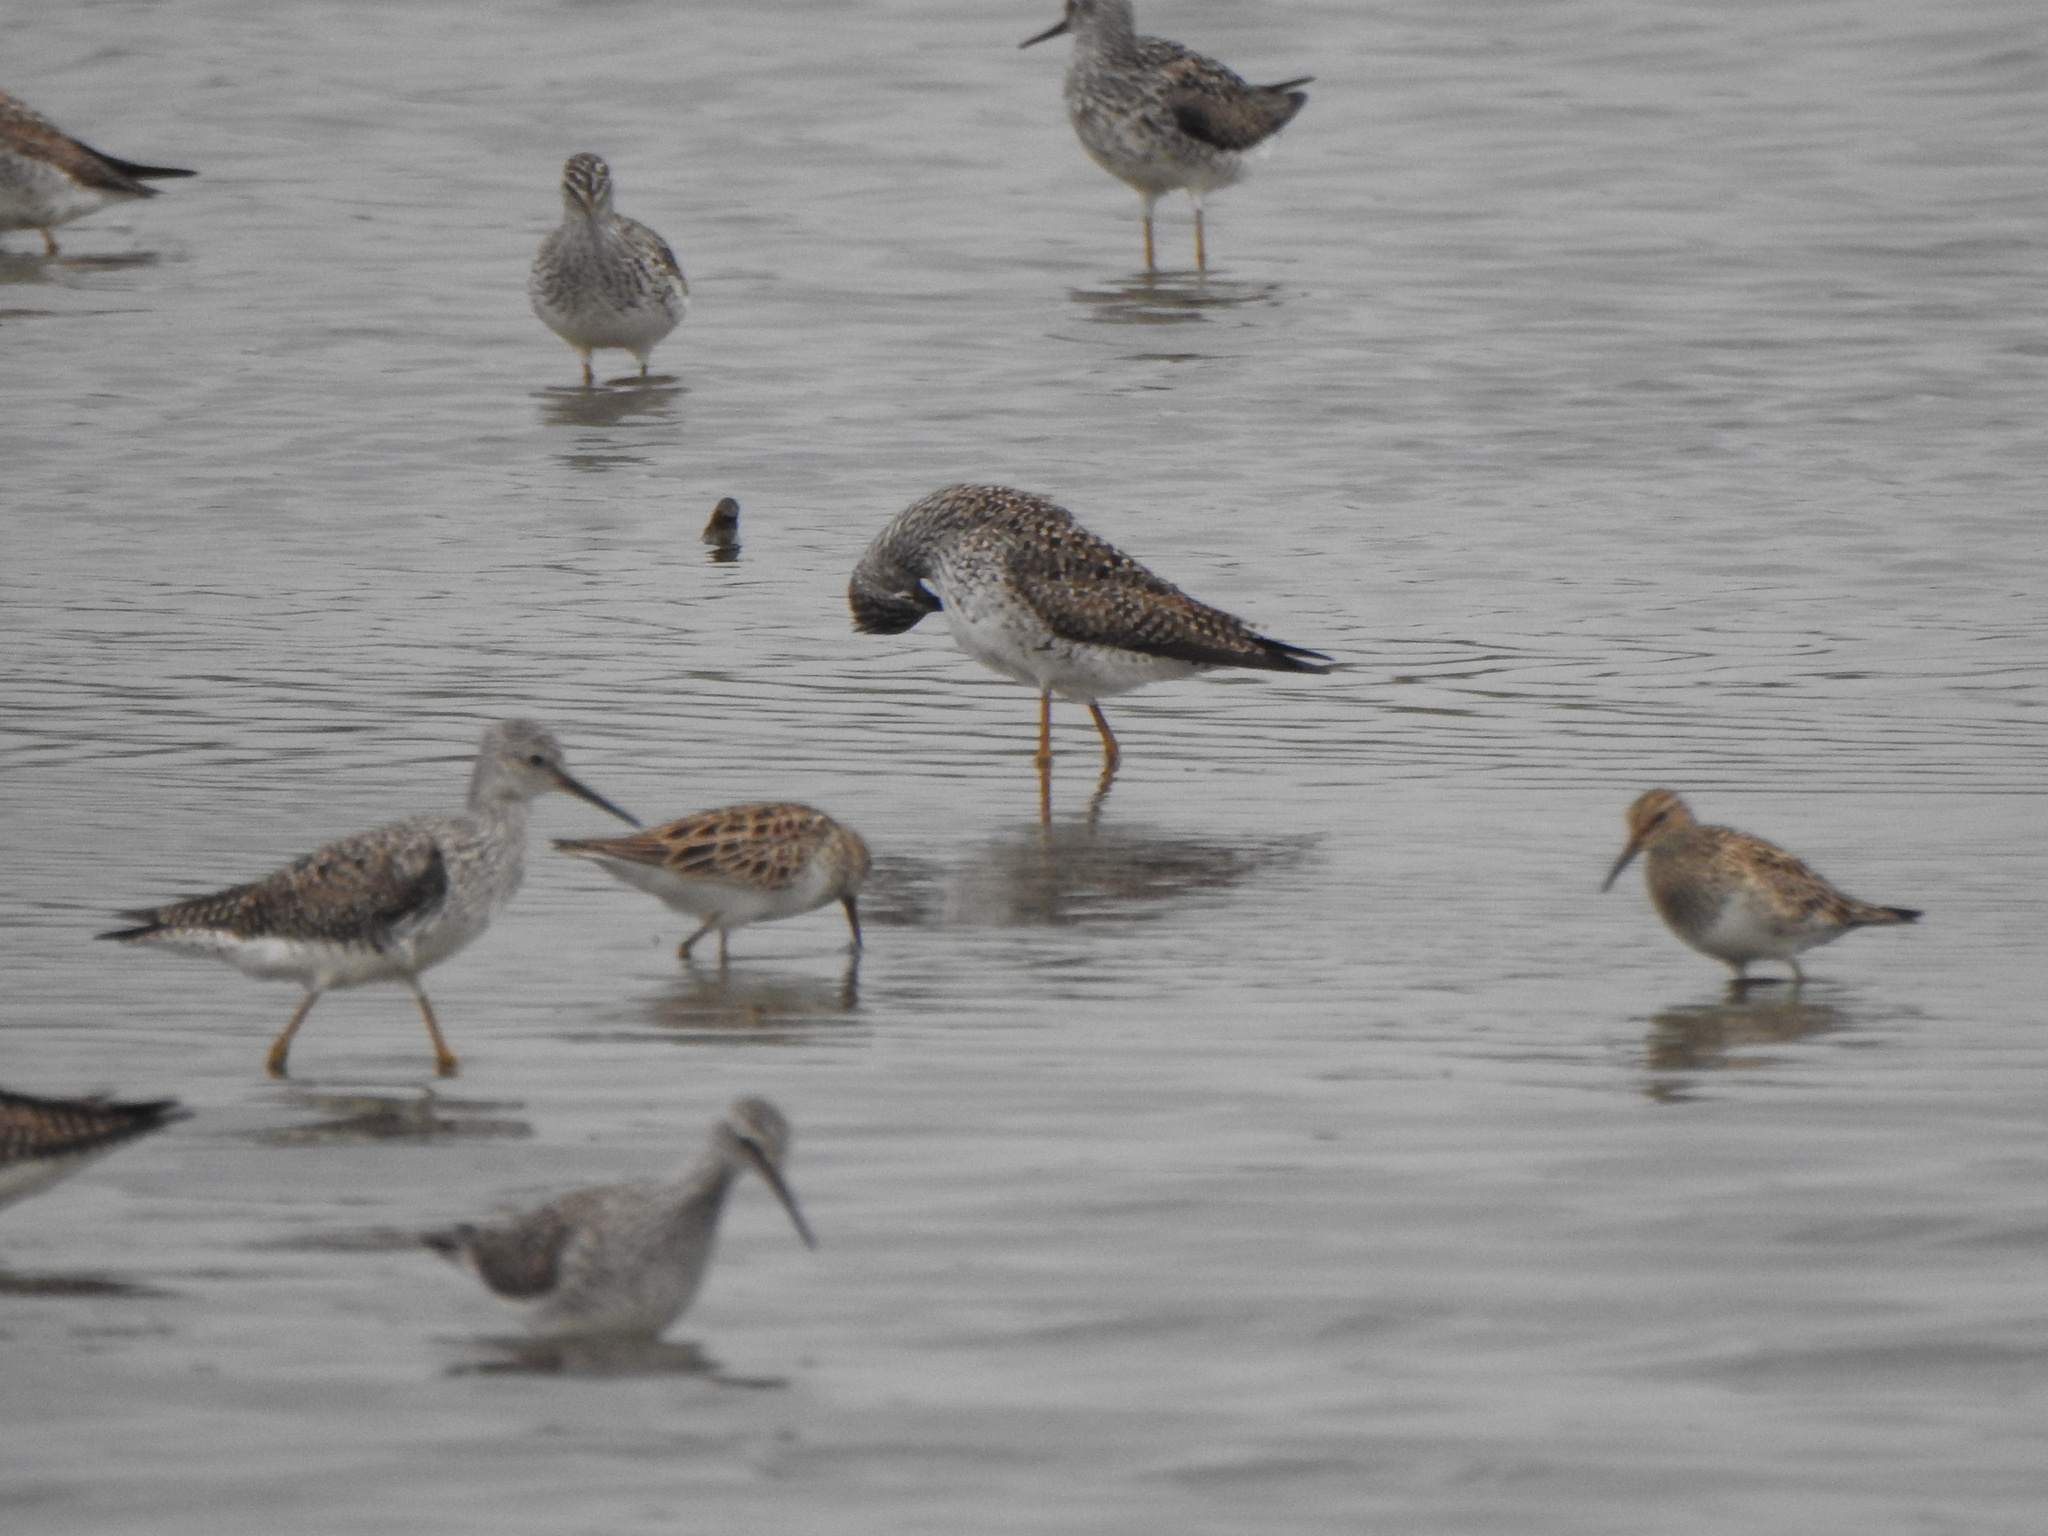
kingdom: Animalia
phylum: Chordata
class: Aves
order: Charadriiformes
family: Scolopacidae
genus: Calidris
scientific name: Calidris melanotos
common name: Pectoral sandpiper
